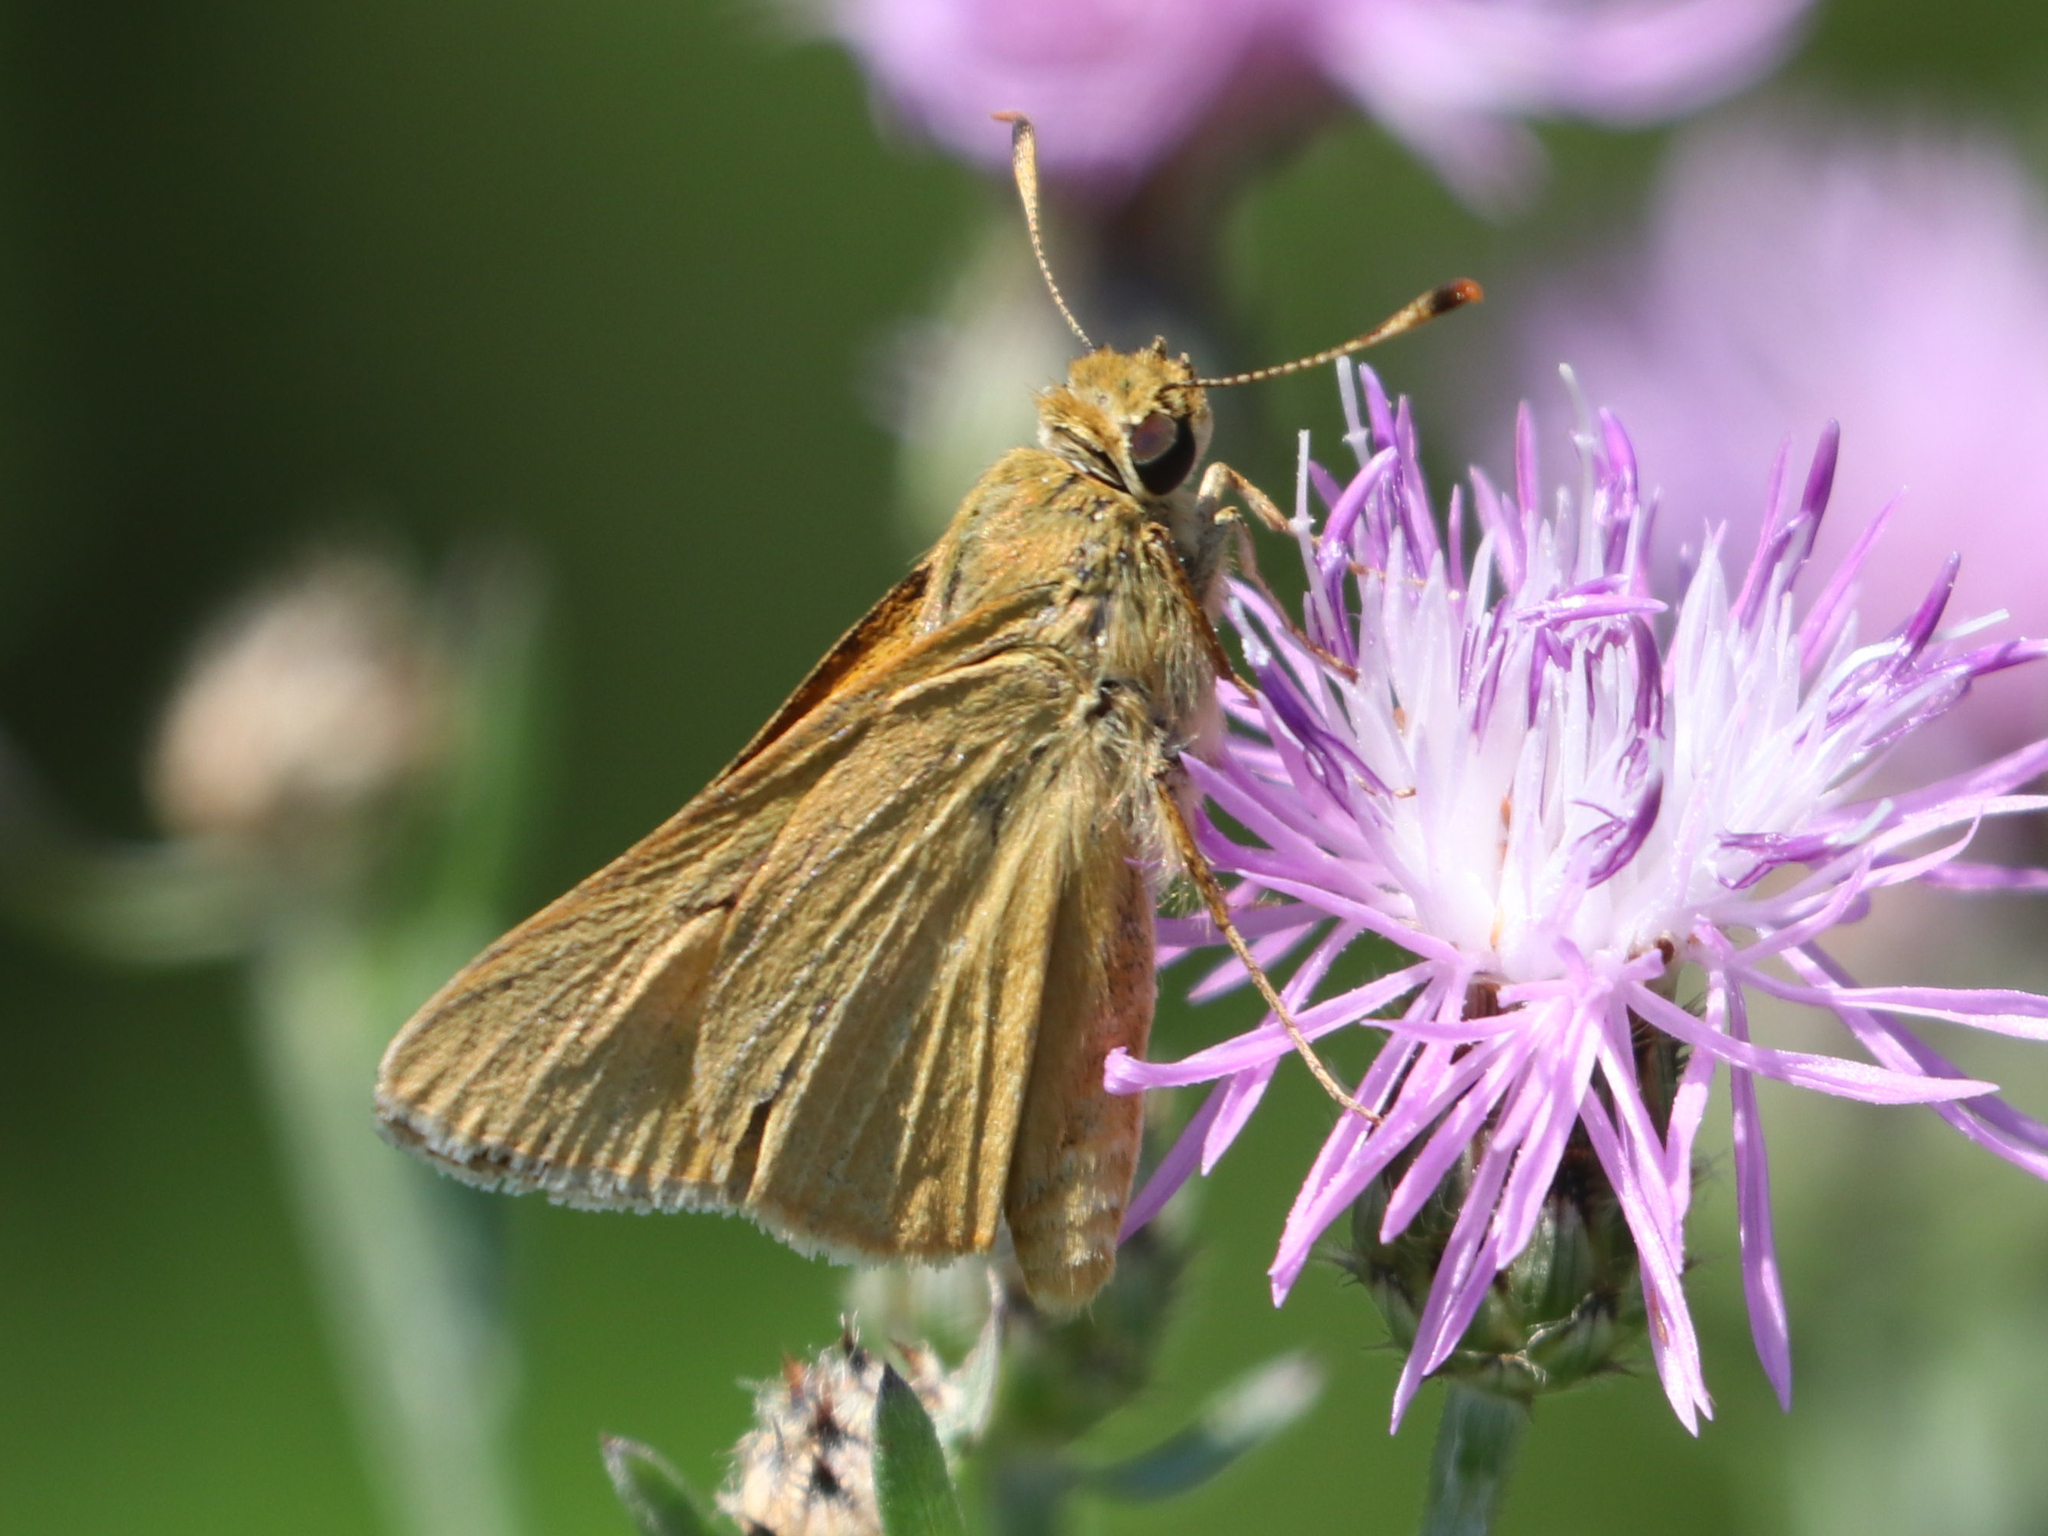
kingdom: Animalia
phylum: Arthropoda
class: Insecta
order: Lepidoptera
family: Hesperiidae
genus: Problema
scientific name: Problema bulenta
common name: Rare skipper
